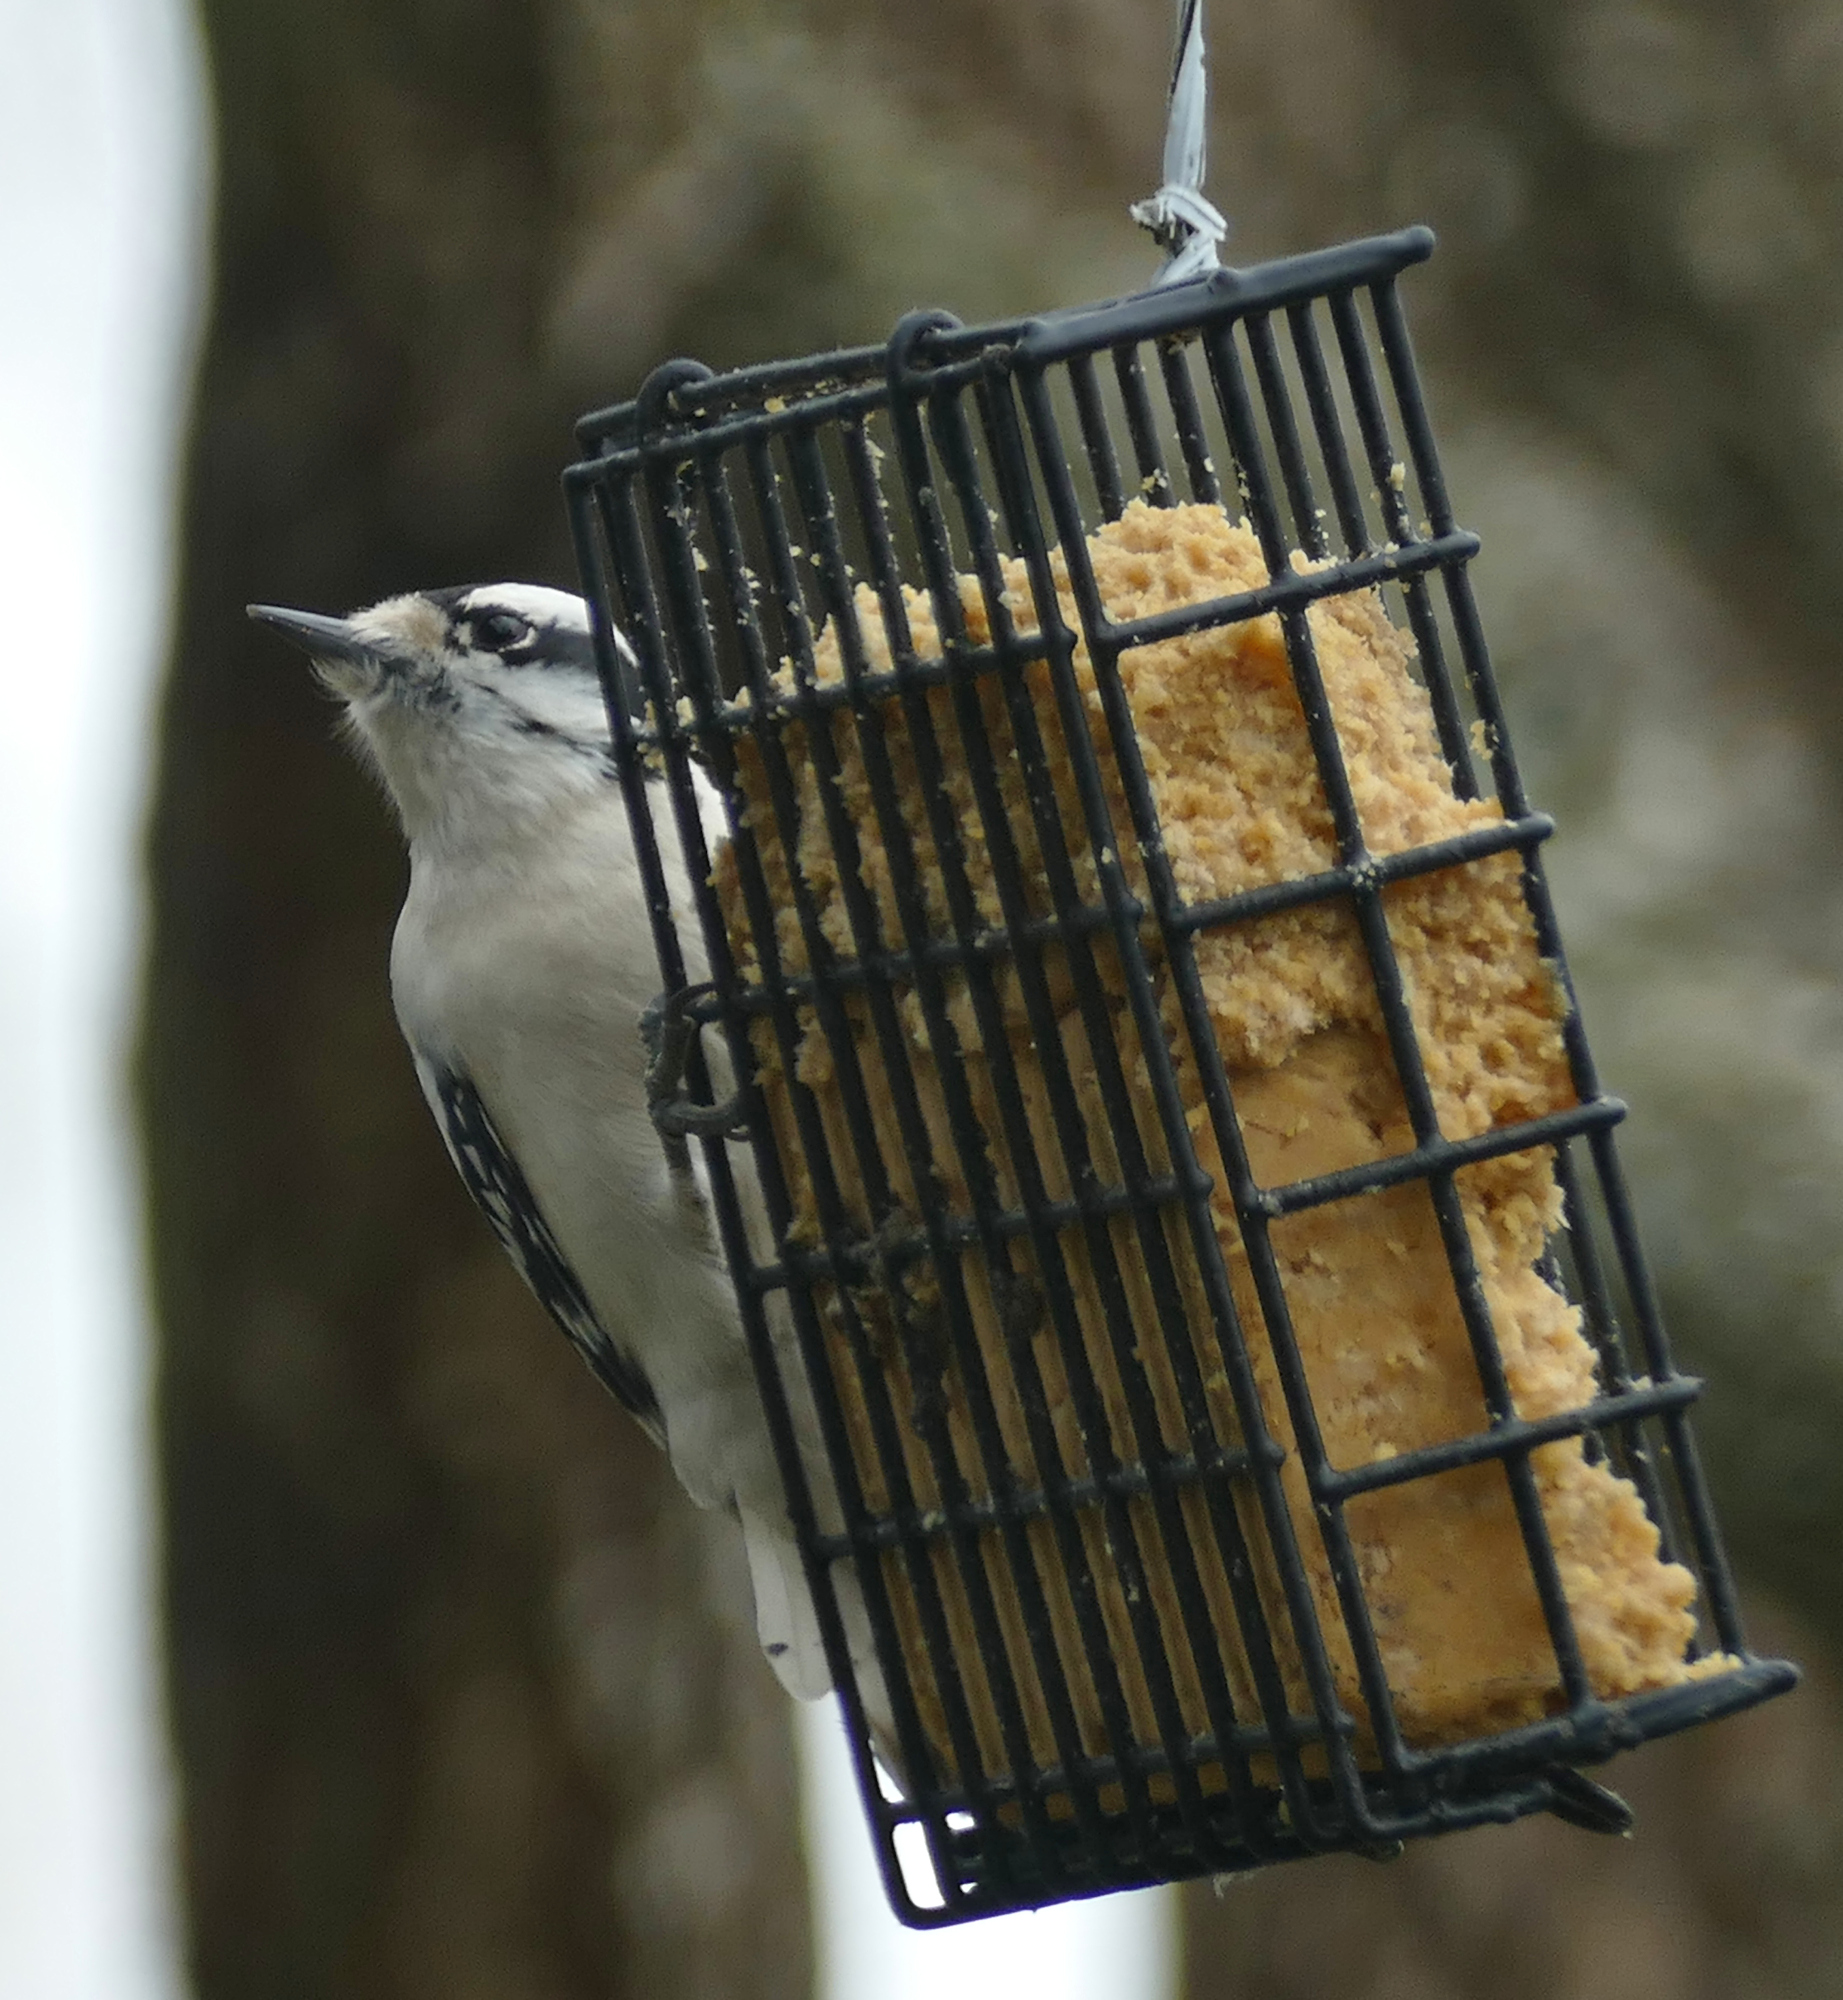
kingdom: Animalia
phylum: Chordata
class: Aves
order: Piciformes
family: Picidae
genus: Dryobates
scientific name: Dryobates pubescens
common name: Downy woodpecker
